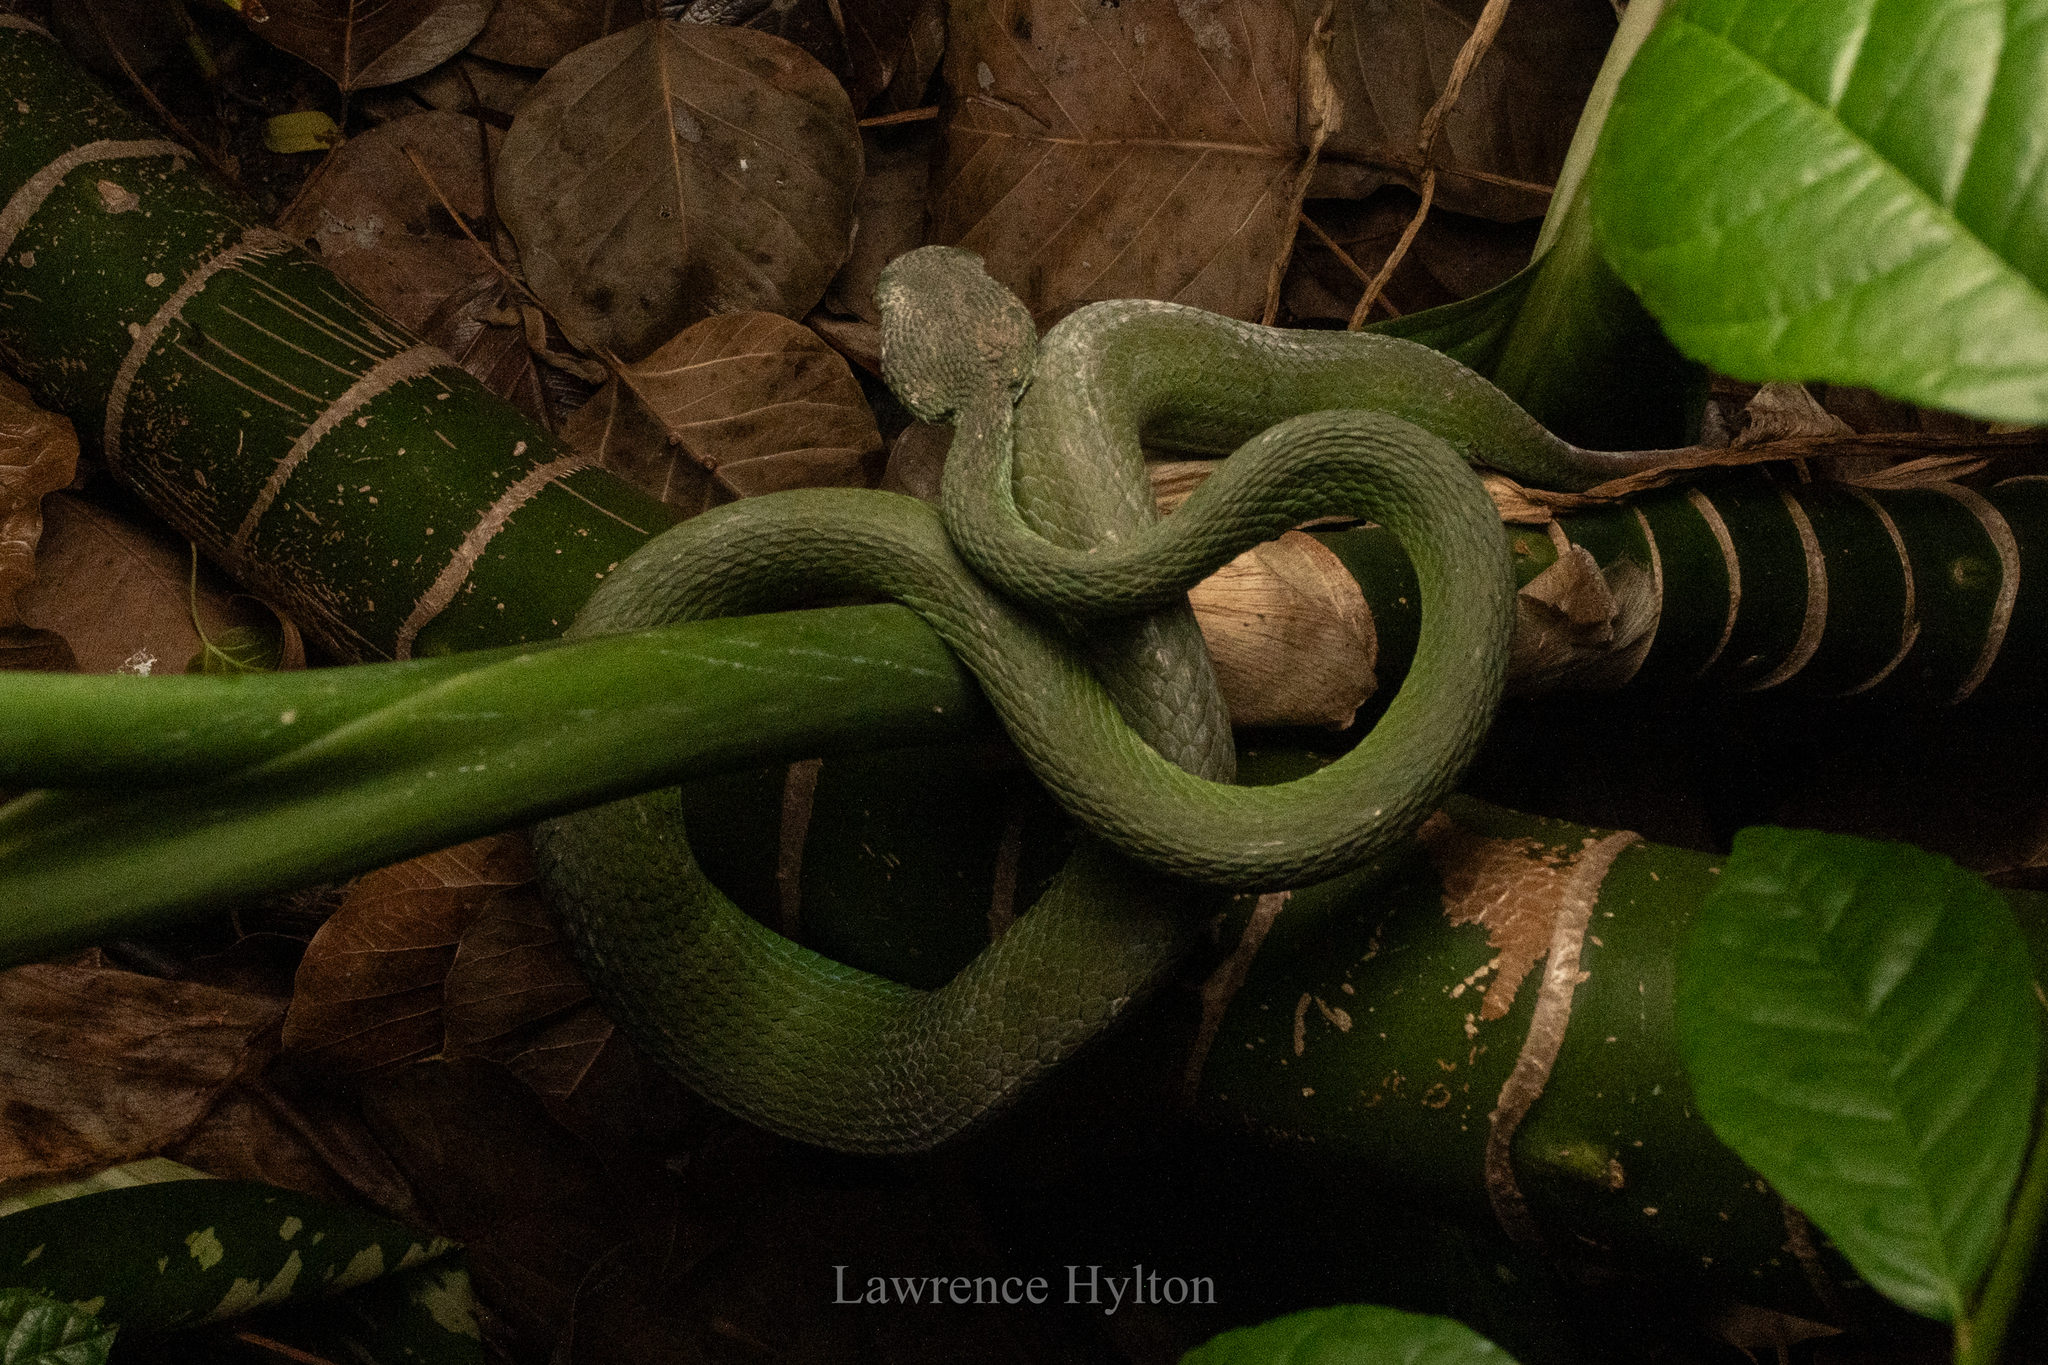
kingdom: Animalia
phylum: Chordata
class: Squamata
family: Viperidae
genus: Trimeresurus
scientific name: Trimeresurus macrops
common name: Kramer's pit viper
